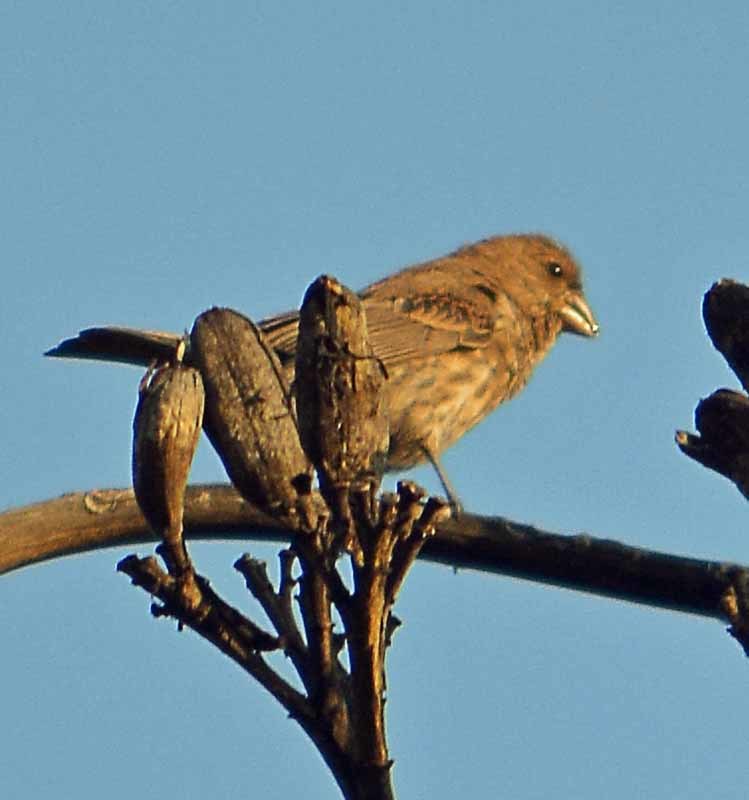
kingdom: Animalia
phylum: Chordata
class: Aves
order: Passeriformes
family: Fringillidae
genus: Haemorhous
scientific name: Haemorhous mexicanus
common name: House finch
